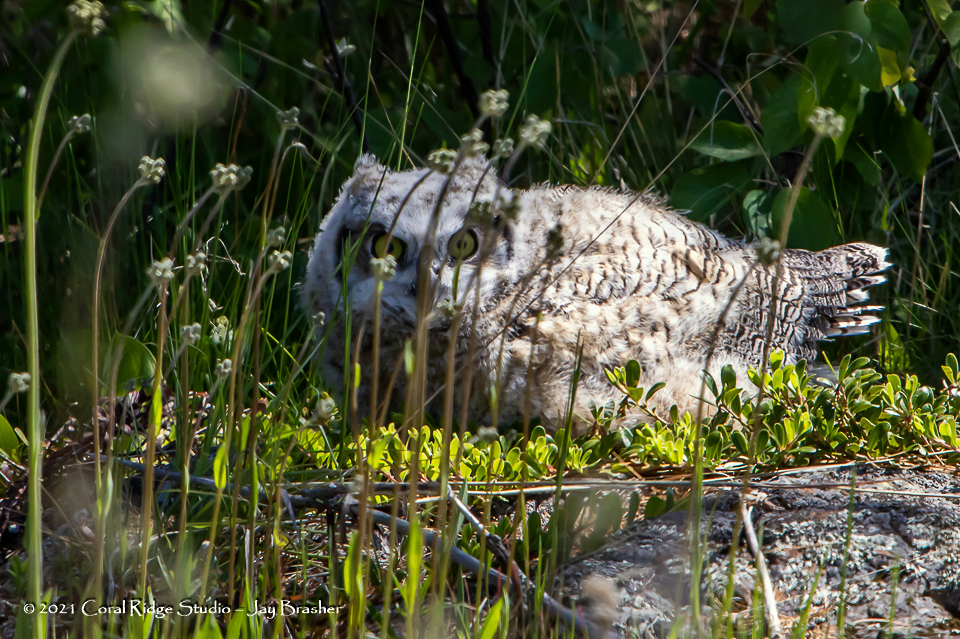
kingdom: Animalia
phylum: Chordata
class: Aves
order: Strigiformes
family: Strigidae
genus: Bubo
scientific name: Bubo virginianus
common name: Great horned owl
